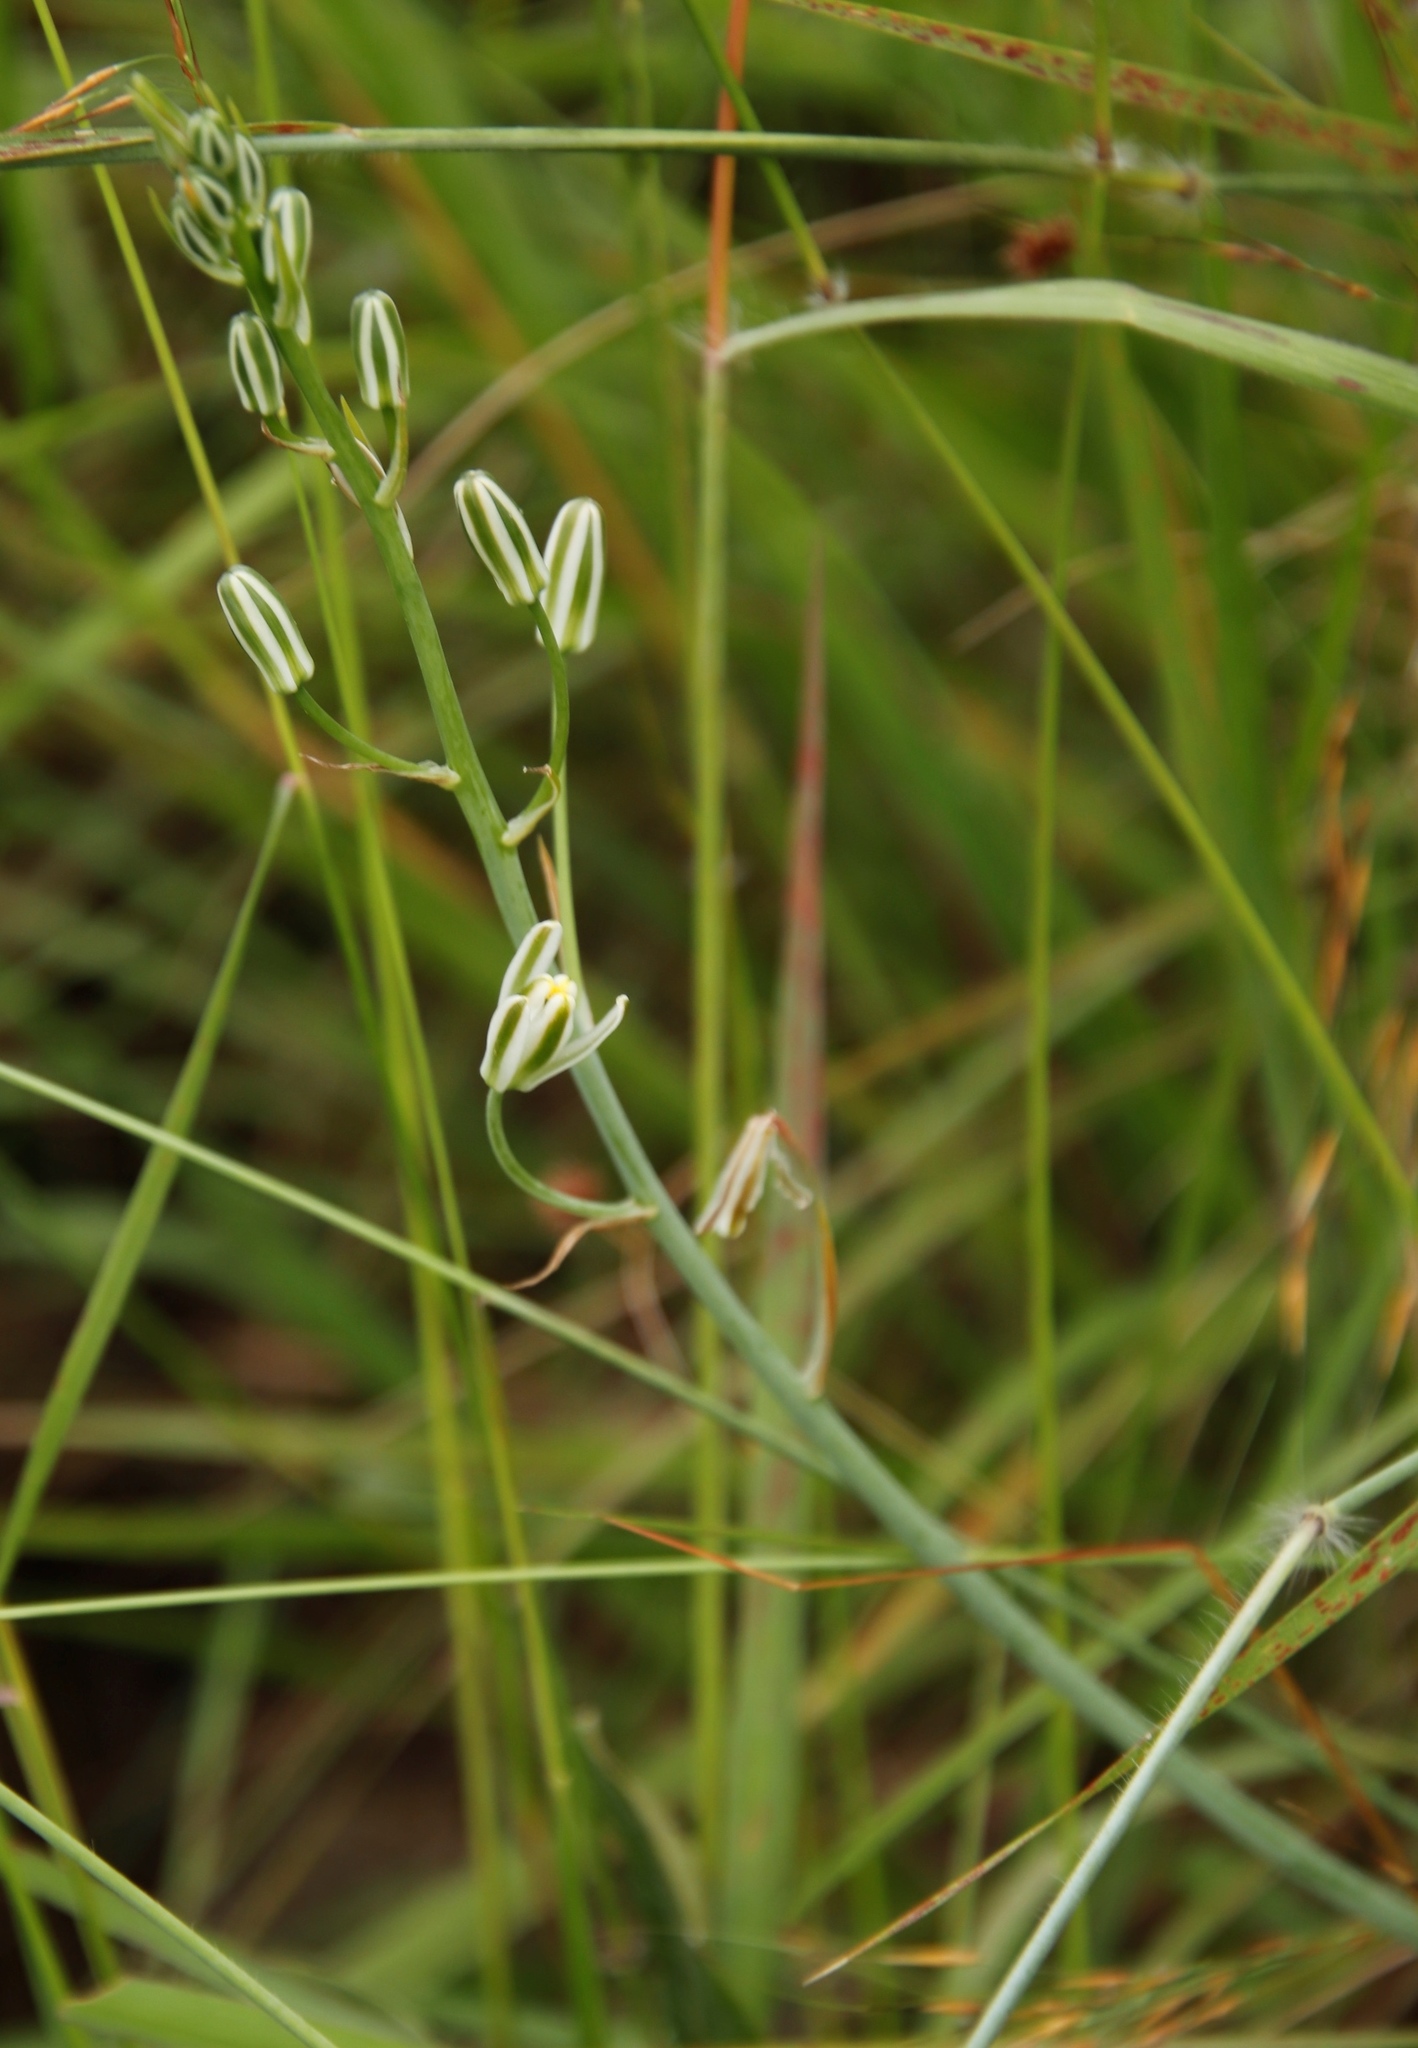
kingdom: Plantae
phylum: Tracheophyta
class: Liliopsida
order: Asparagales
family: Asparagaceae
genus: Albuca
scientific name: Albuca kirkii
